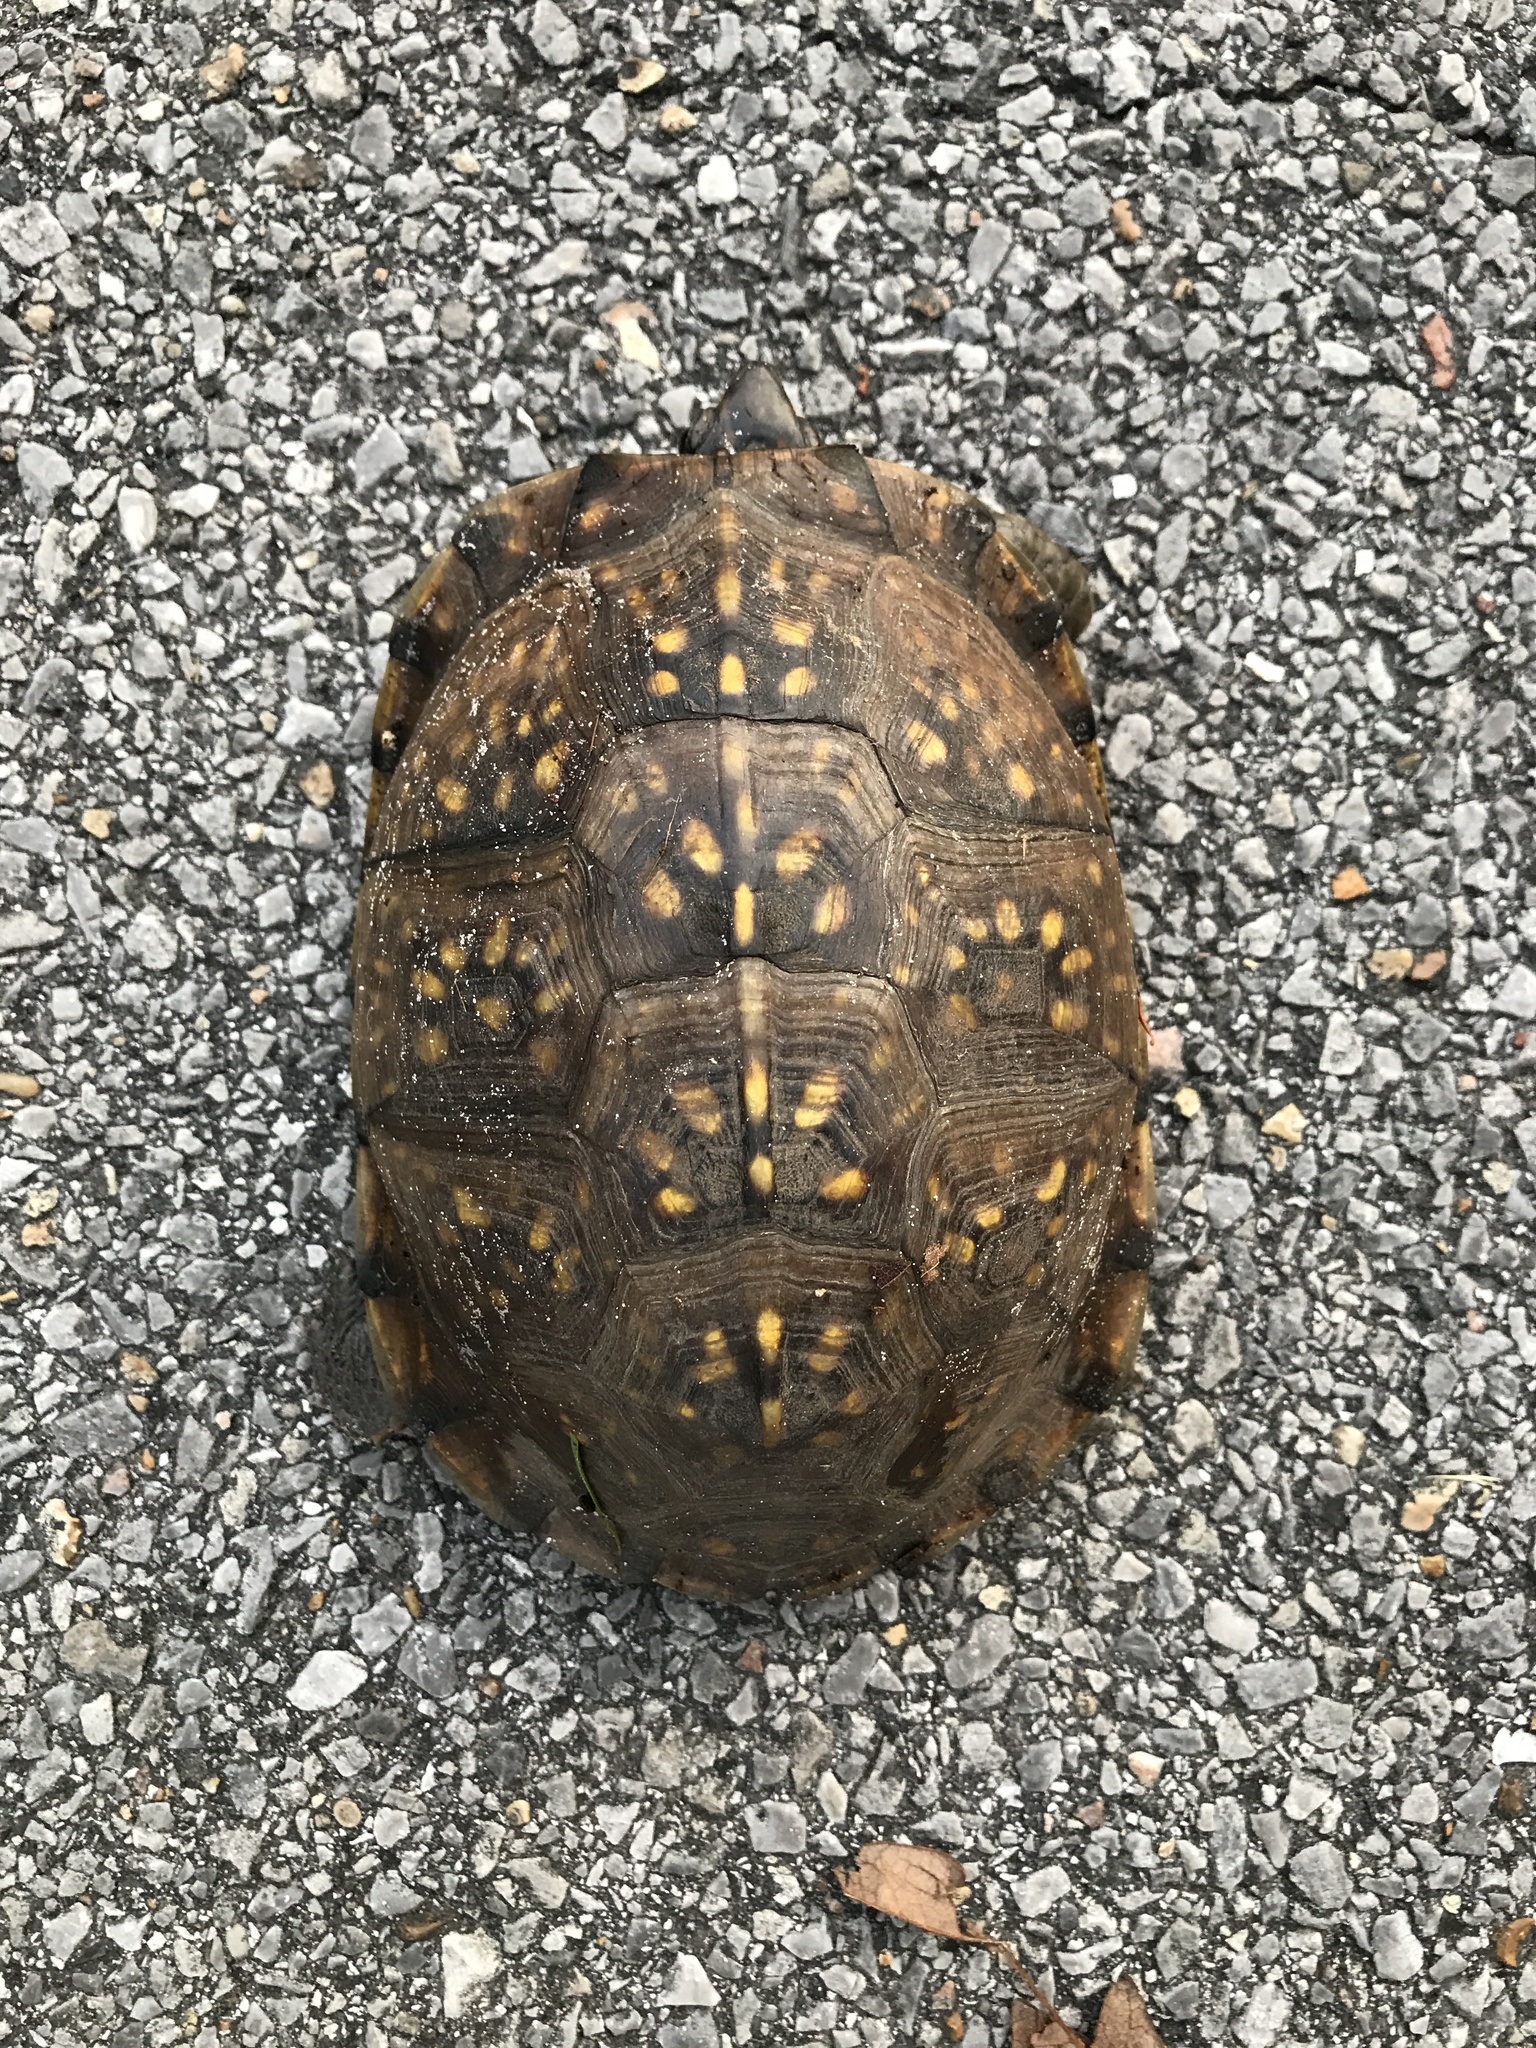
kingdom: Animalia
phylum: Chordata
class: Testudines
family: Emydidae
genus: Terrapene
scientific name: Terrapene carolina
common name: Common box turtle
